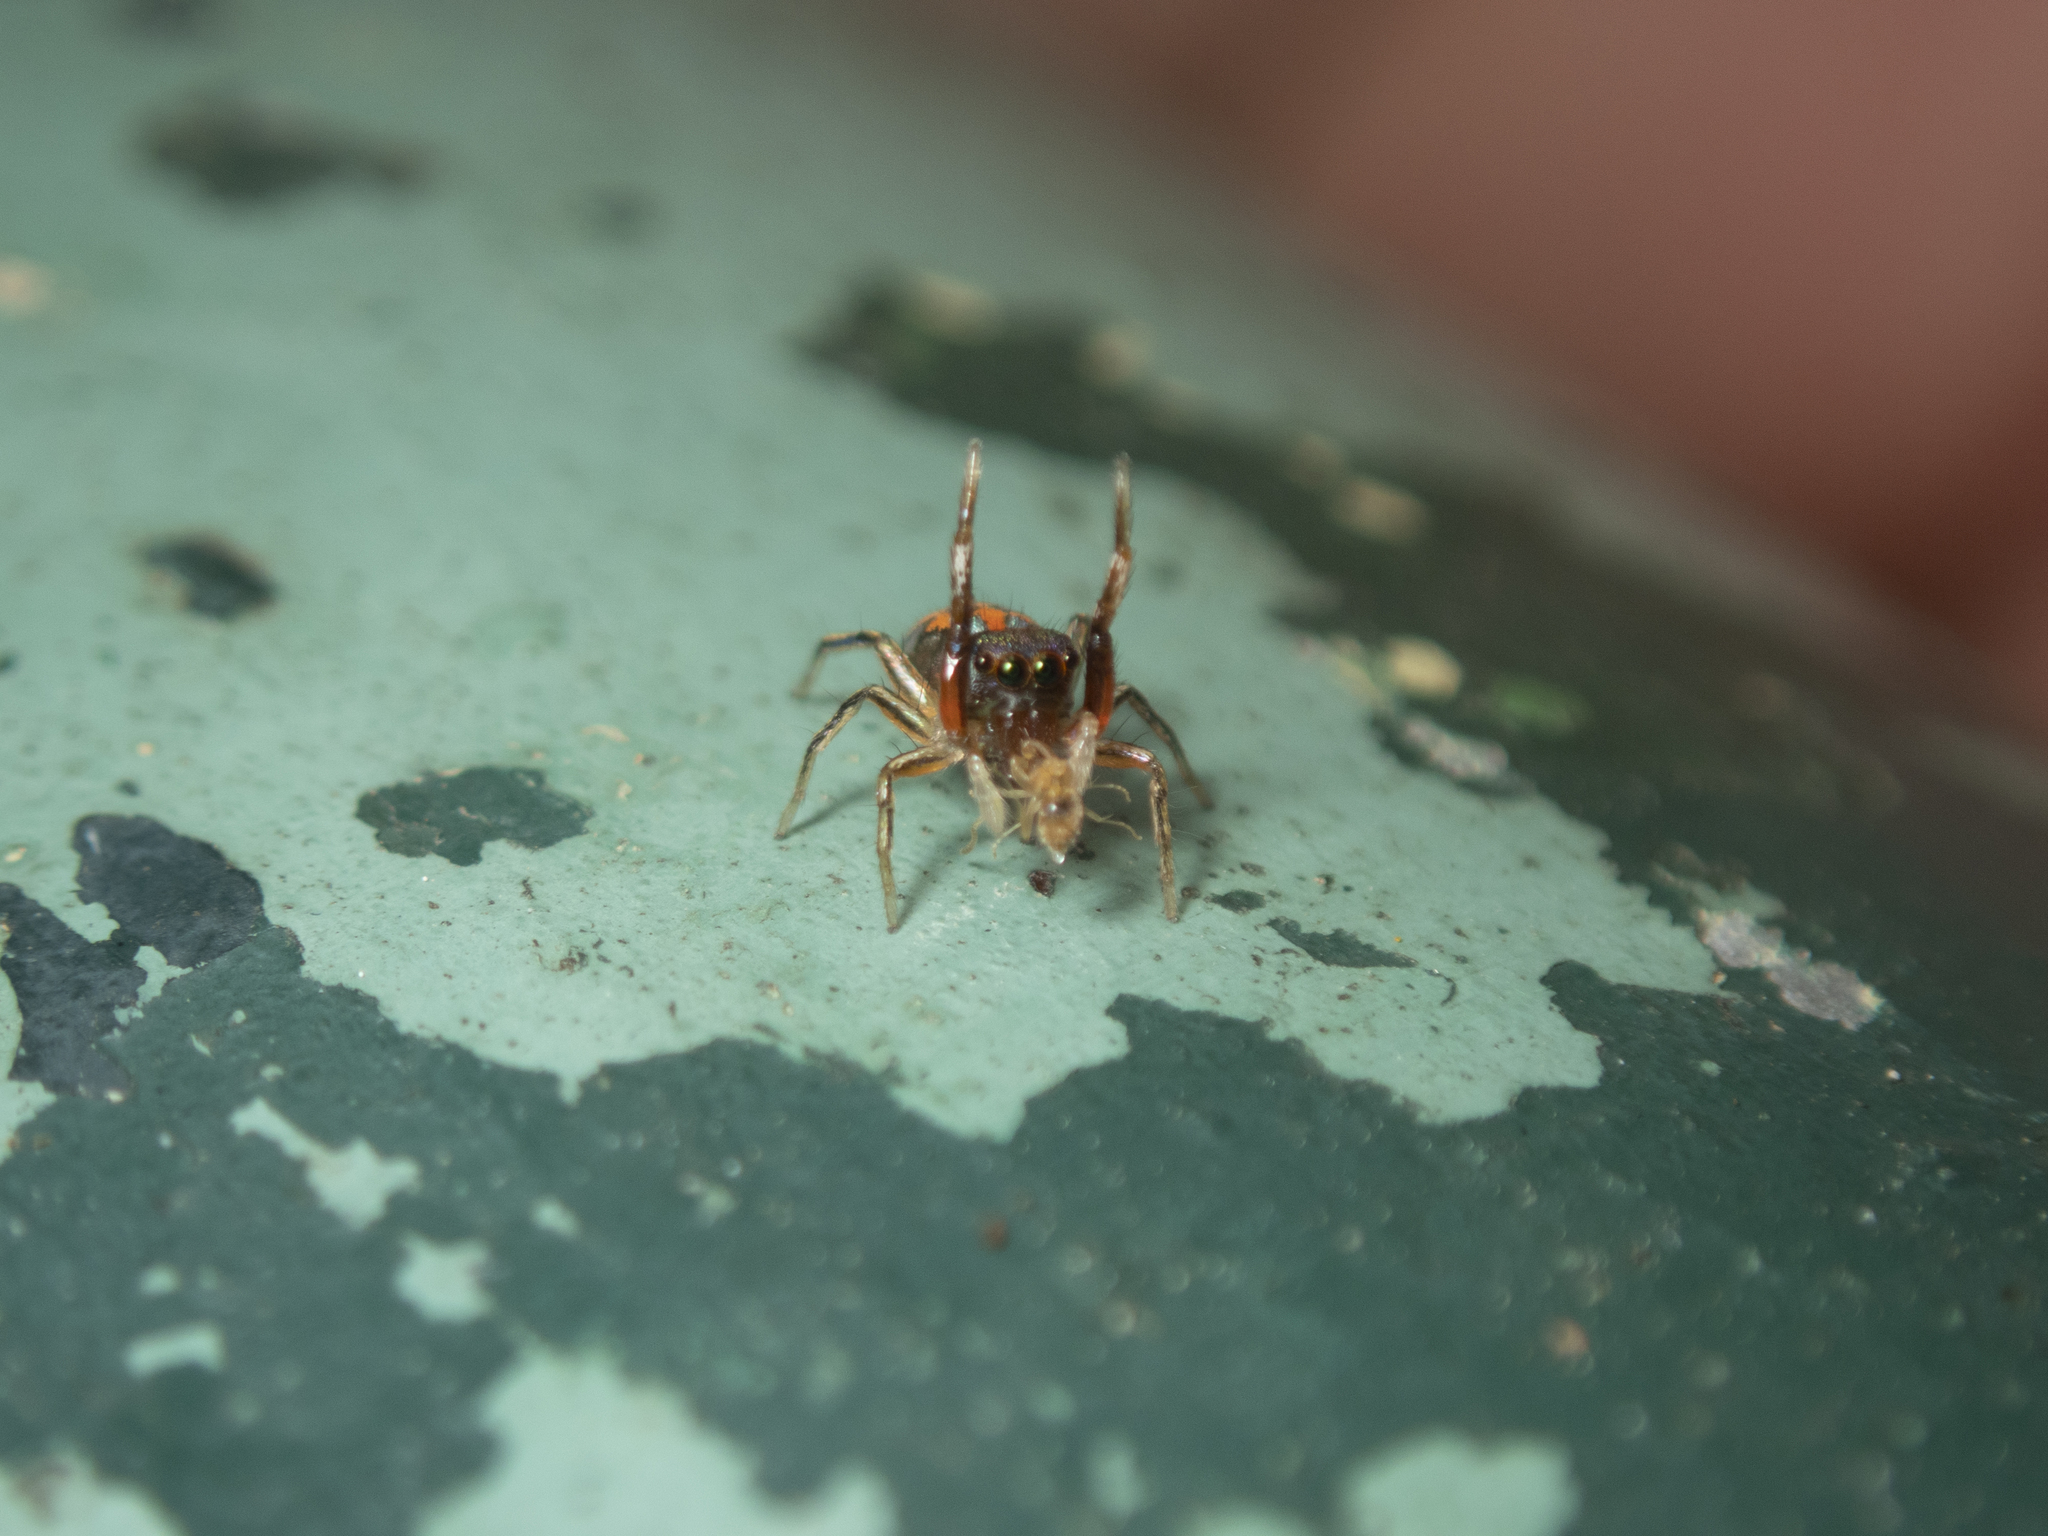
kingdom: Animalia
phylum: Arthropoda
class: Arachnida
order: Araneae
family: Salticidae
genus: Siler
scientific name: Siler collingwoodi
